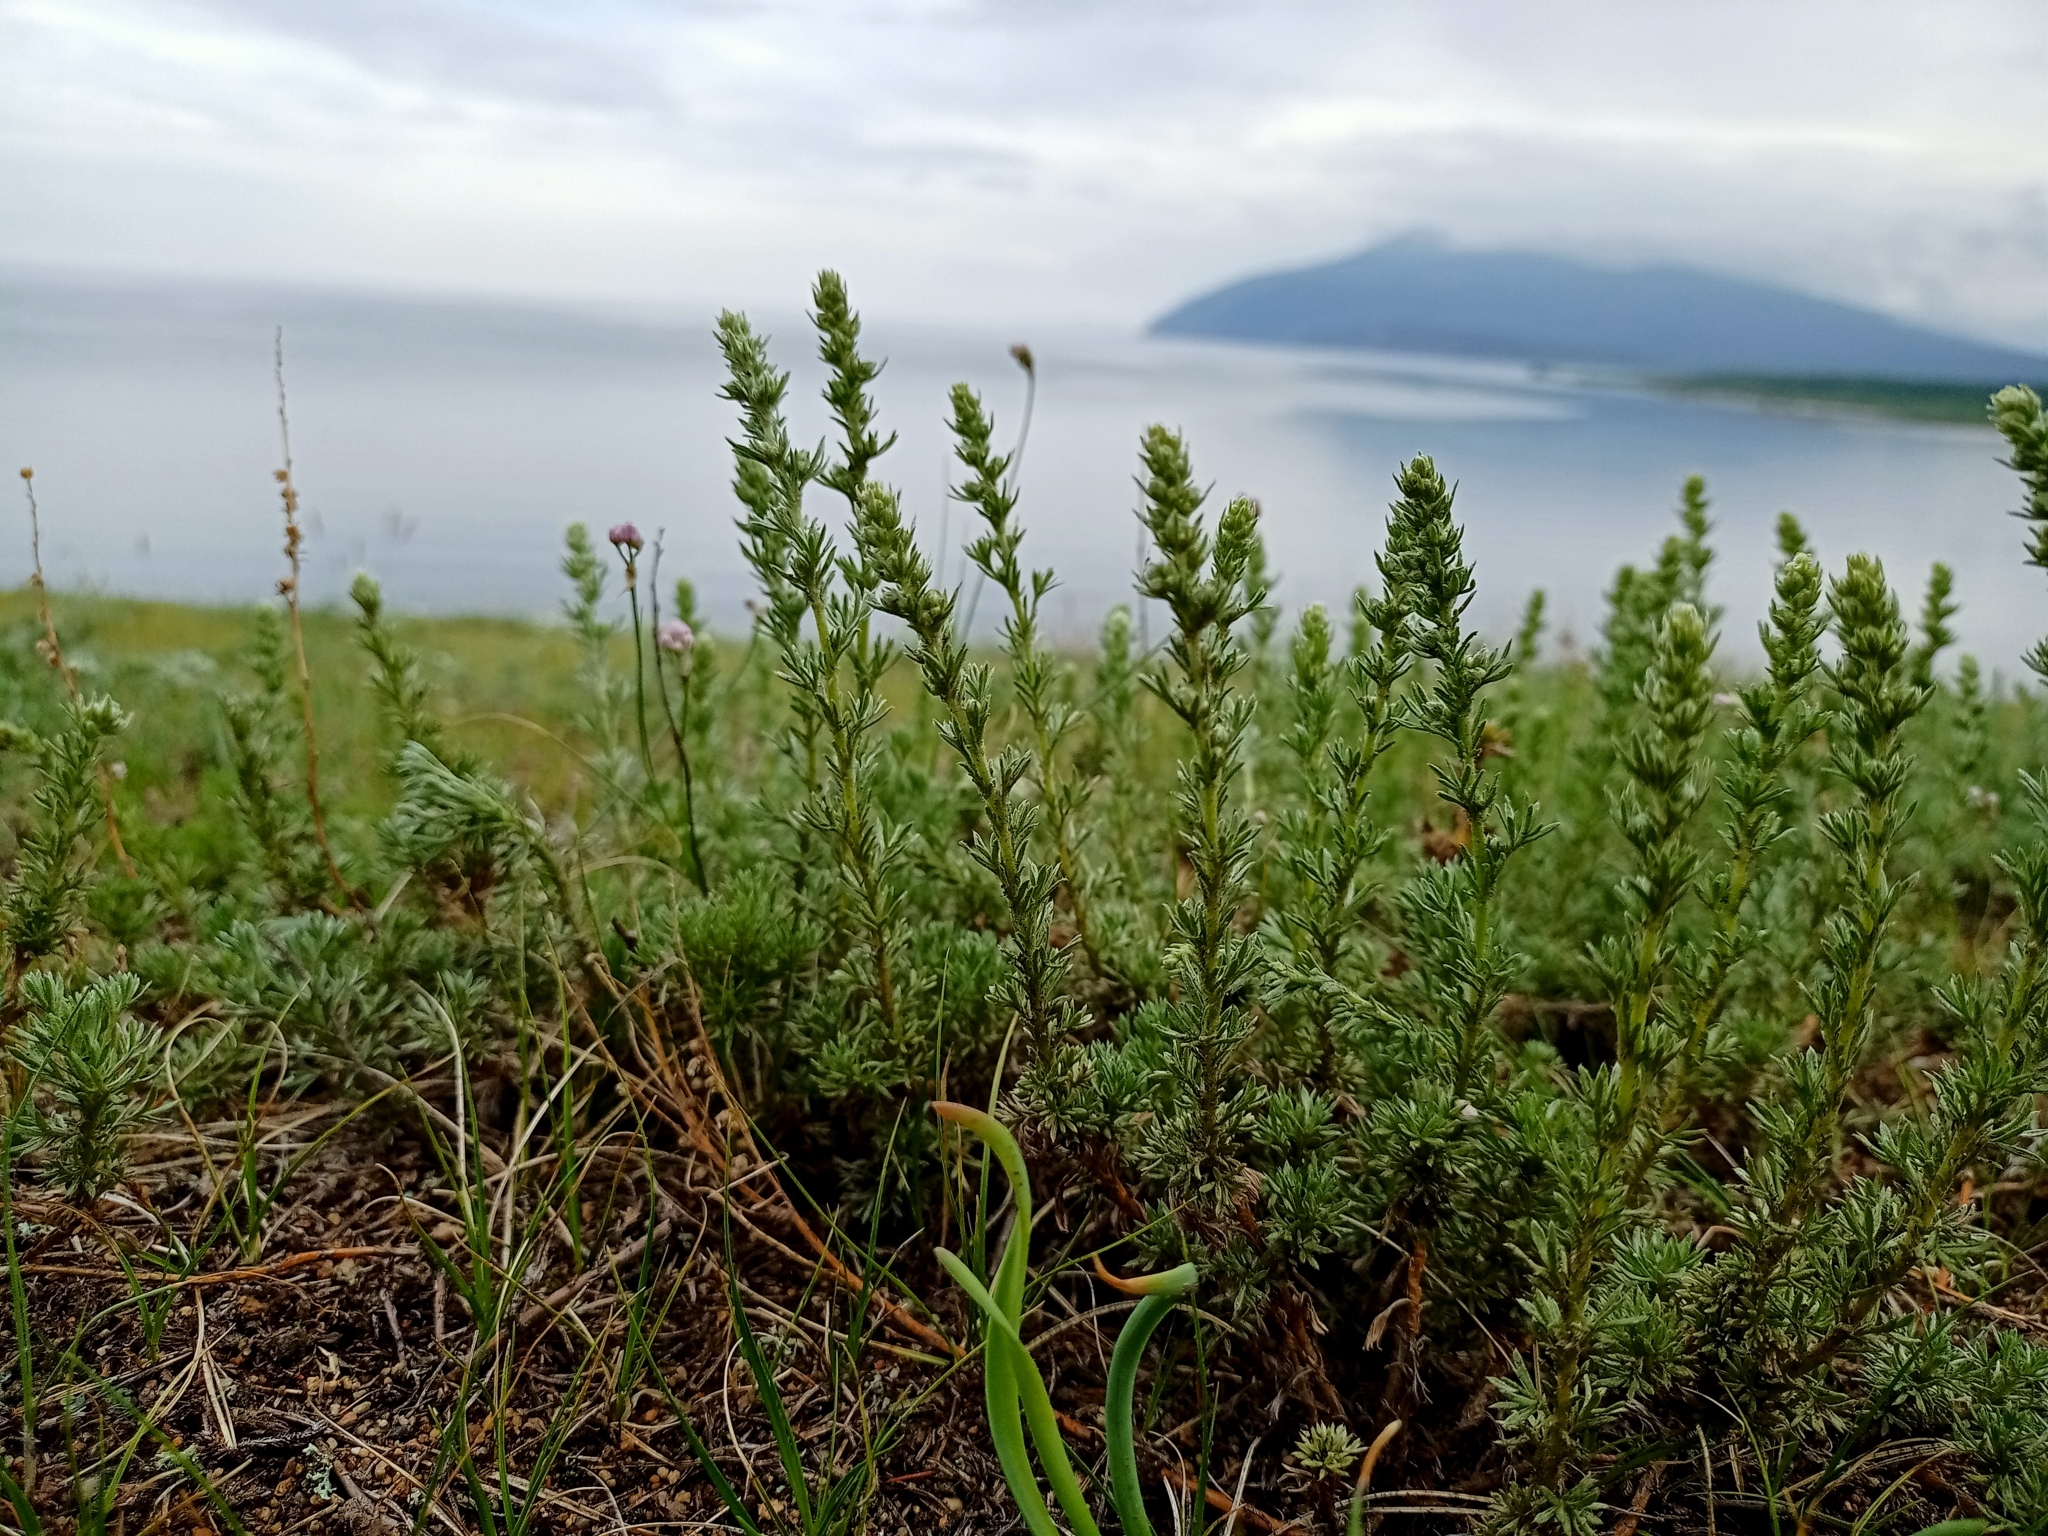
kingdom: Plantae
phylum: Tracheophyta
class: Magnoliopsida
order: Asterales
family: Asteraceae
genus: Artemisia
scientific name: Artemisia frigida
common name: Prairie sagewort
